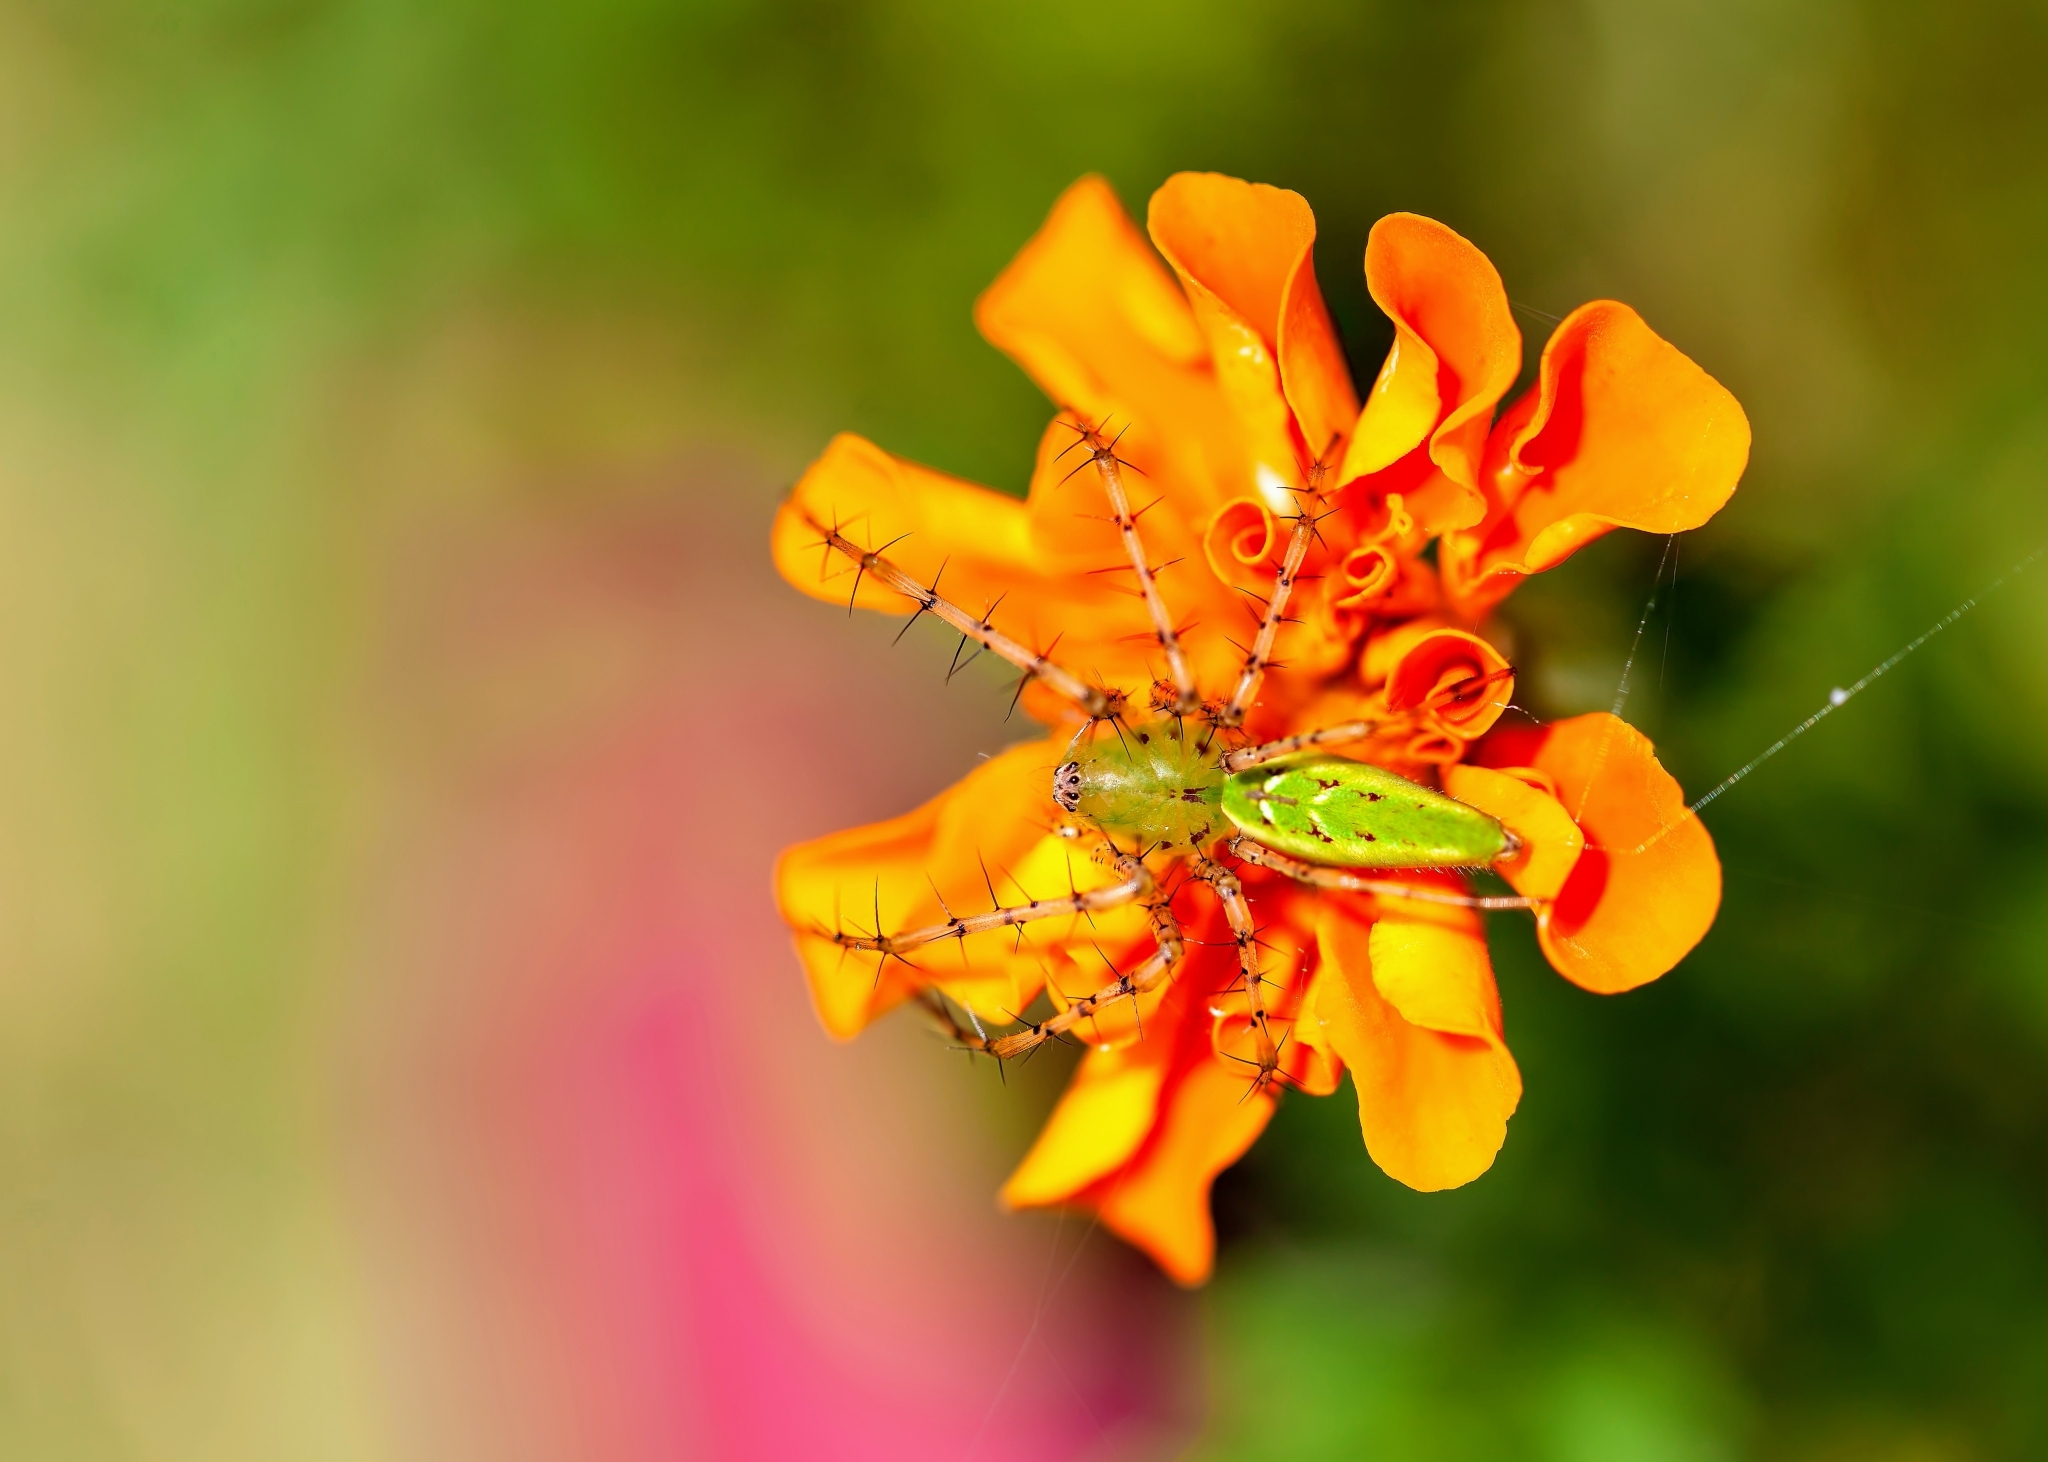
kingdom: Animalia
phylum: Arthropoda
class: Arachnida
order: Araneae
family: Oxyopidae
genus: Peucetia
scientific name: Peucetia viridans
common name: Lynx spiders
